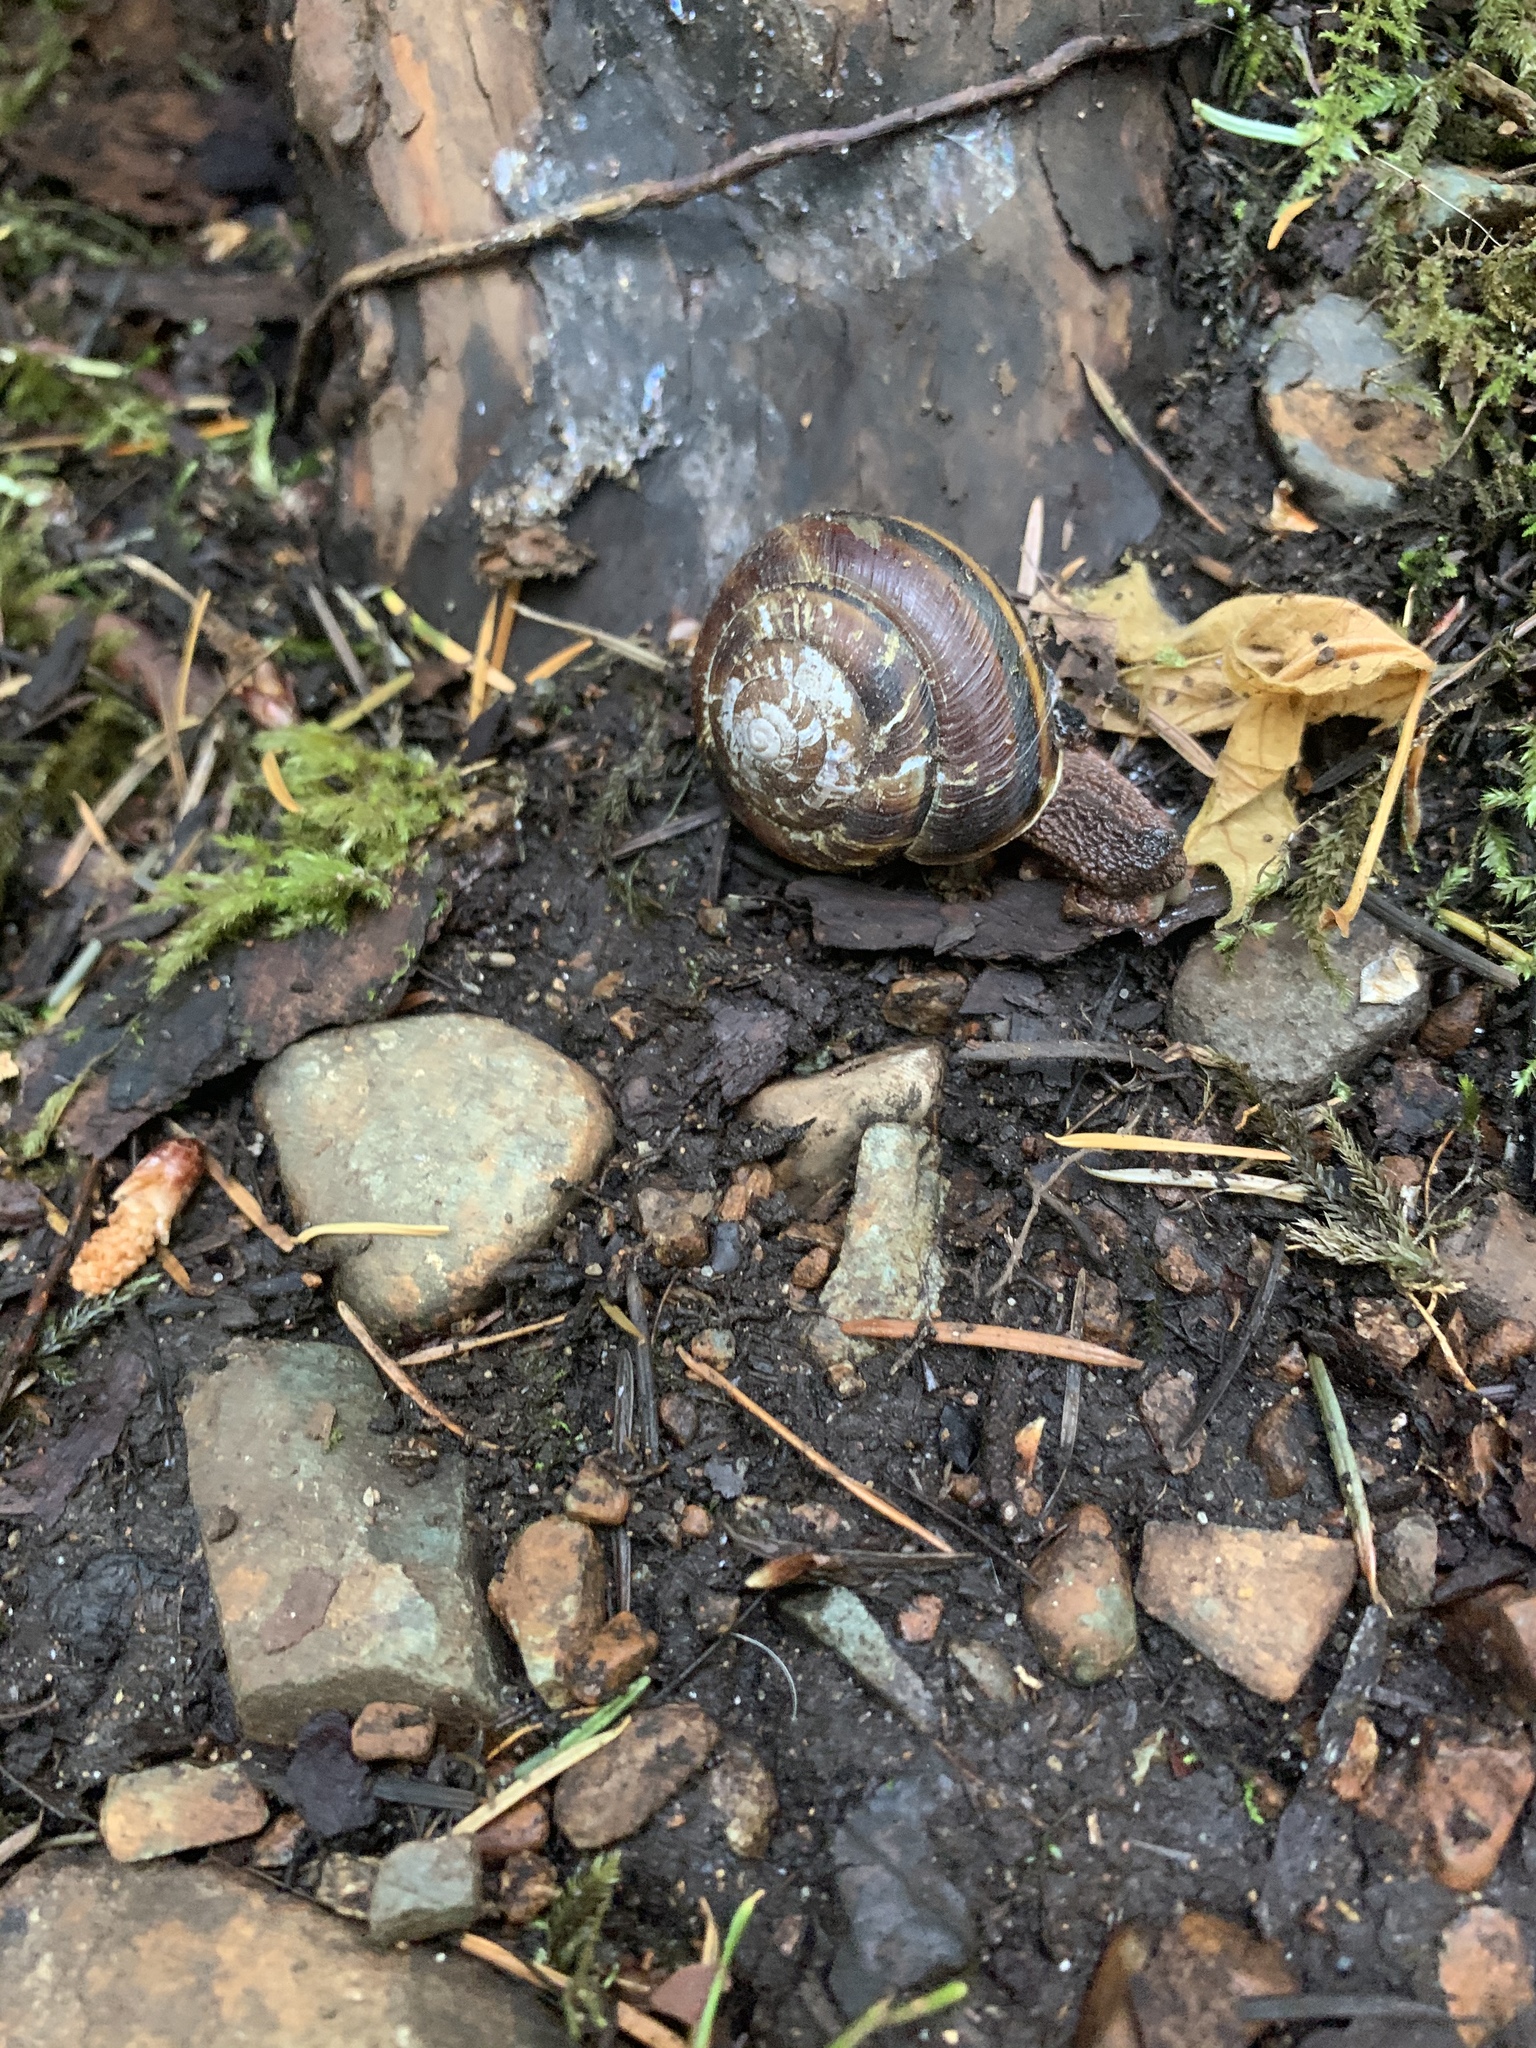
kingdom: Animalia
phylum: Mollusca
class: Gastropoda
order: Stylommatophora
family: Xanthonychidae
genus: Monadenia
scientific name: Monadenia fidelis
